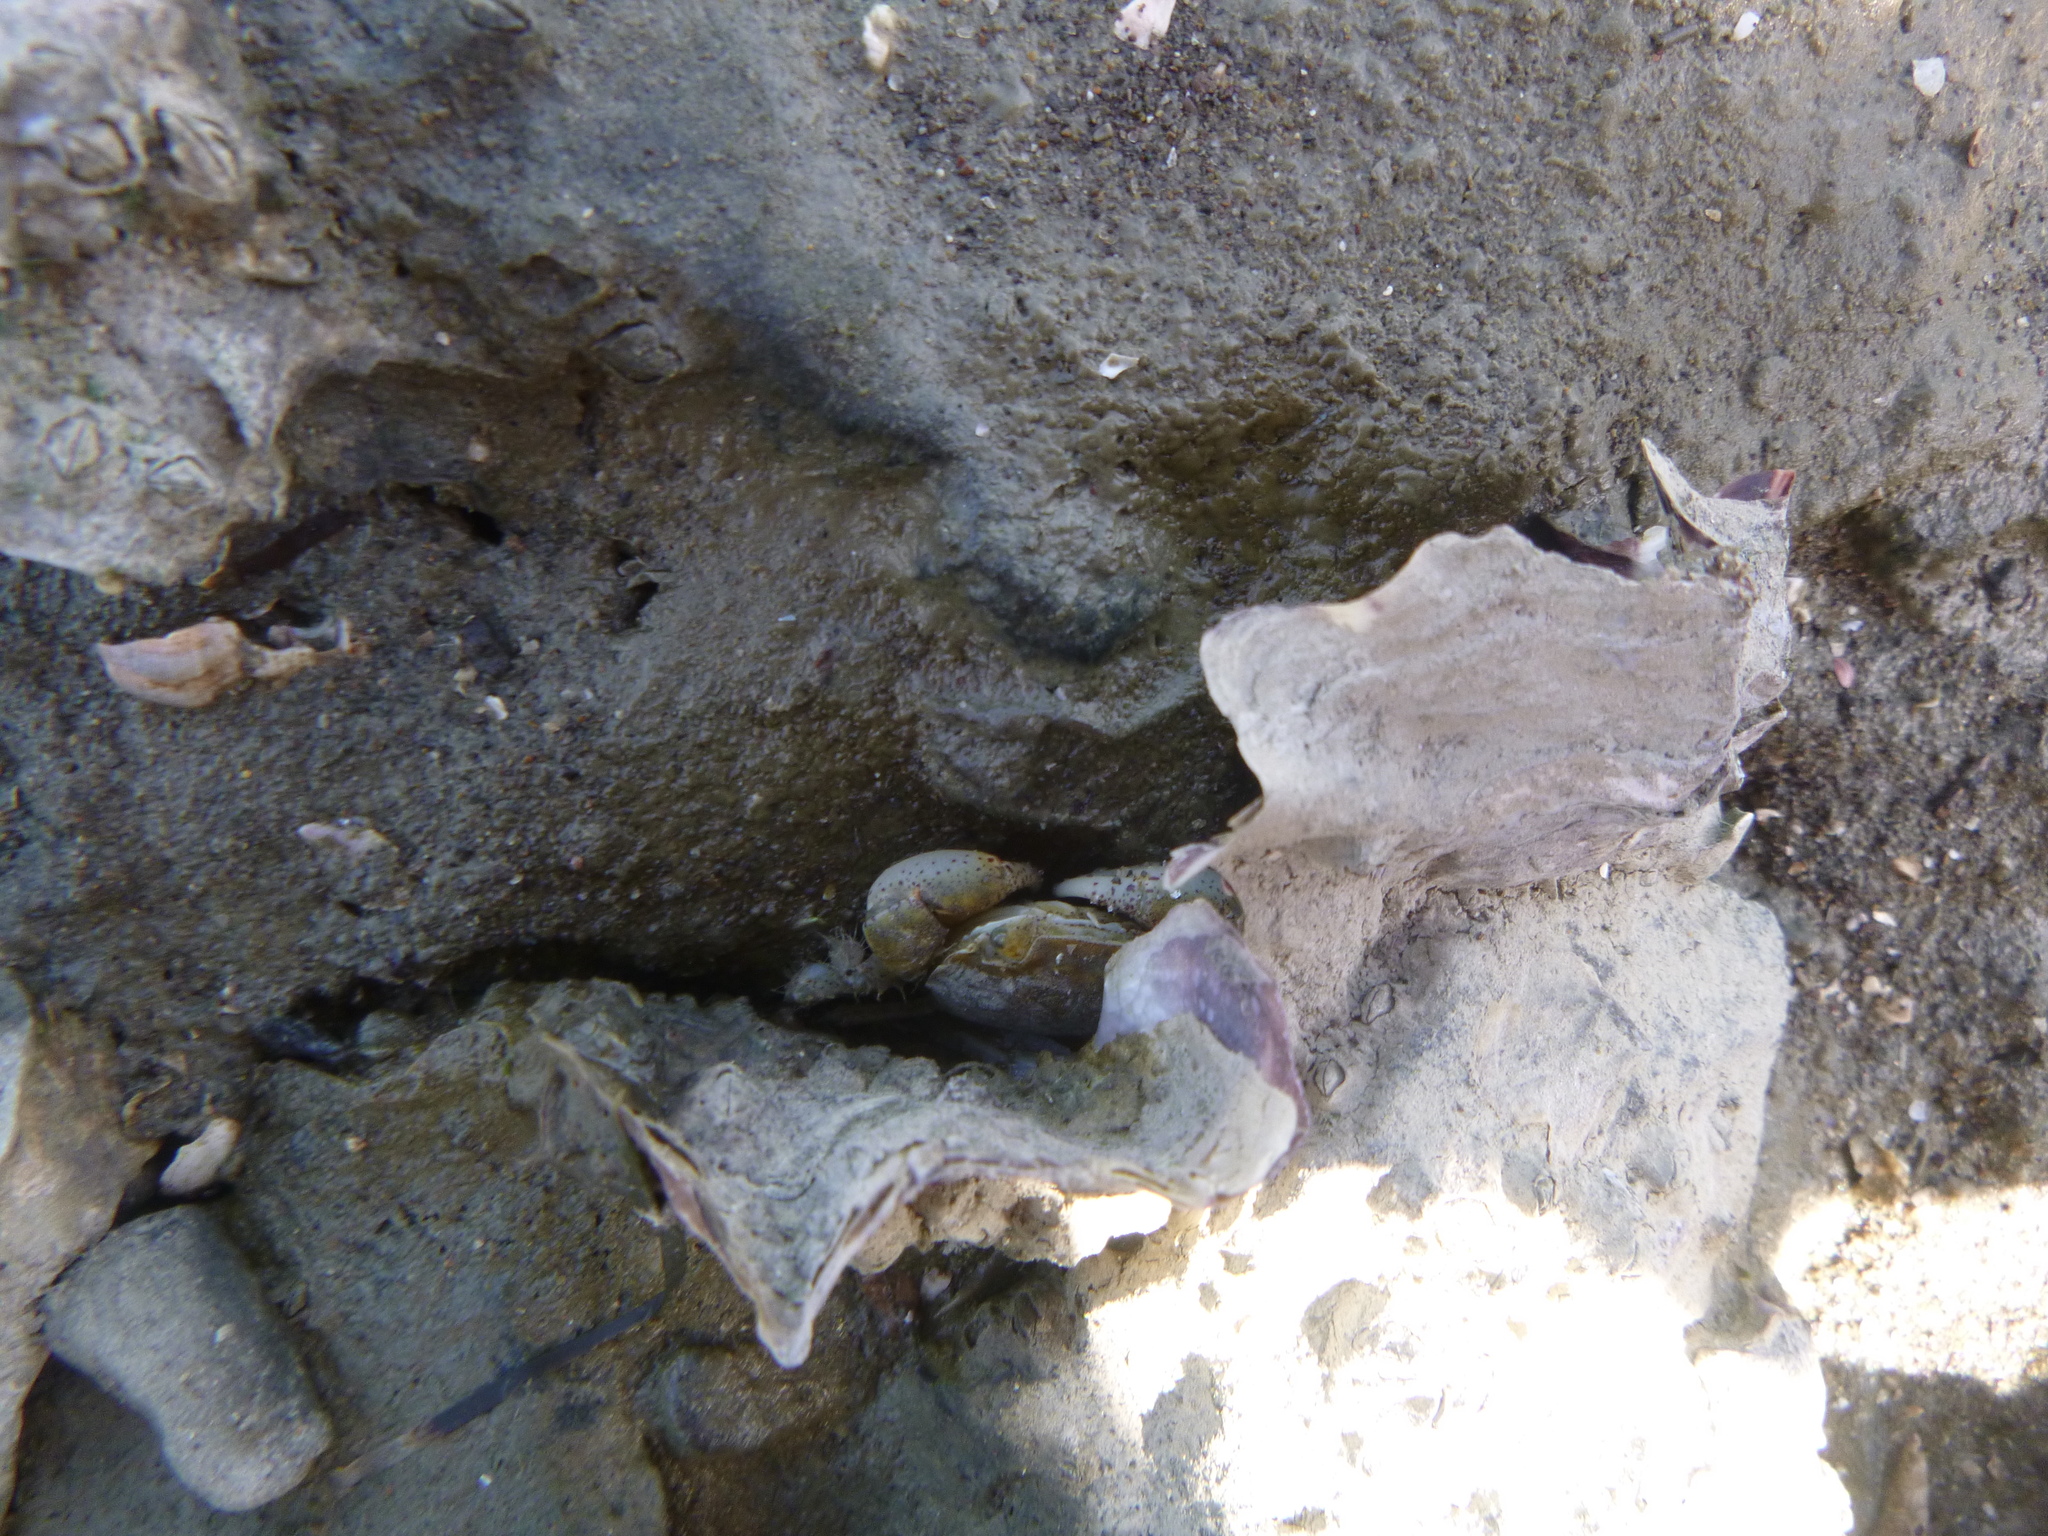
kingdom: Animalia
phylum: Arthropoda
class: Malacostraca
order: Decapoda
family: Varunidae
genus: Hemigrapsus
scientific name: Hemigrapsus crenulatus
